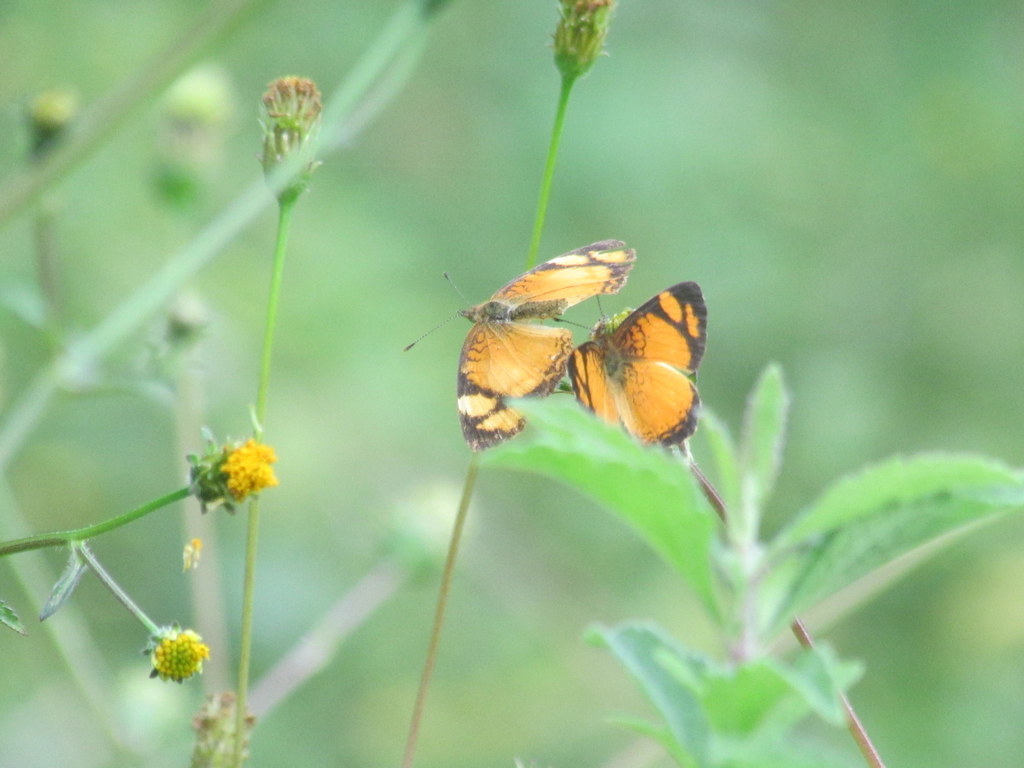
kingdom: Animalia
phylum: Arthropoda
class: Insecta
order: Lepidoptera
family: Nymphalidae
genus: Tegosa
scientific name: Tegosa claudina
